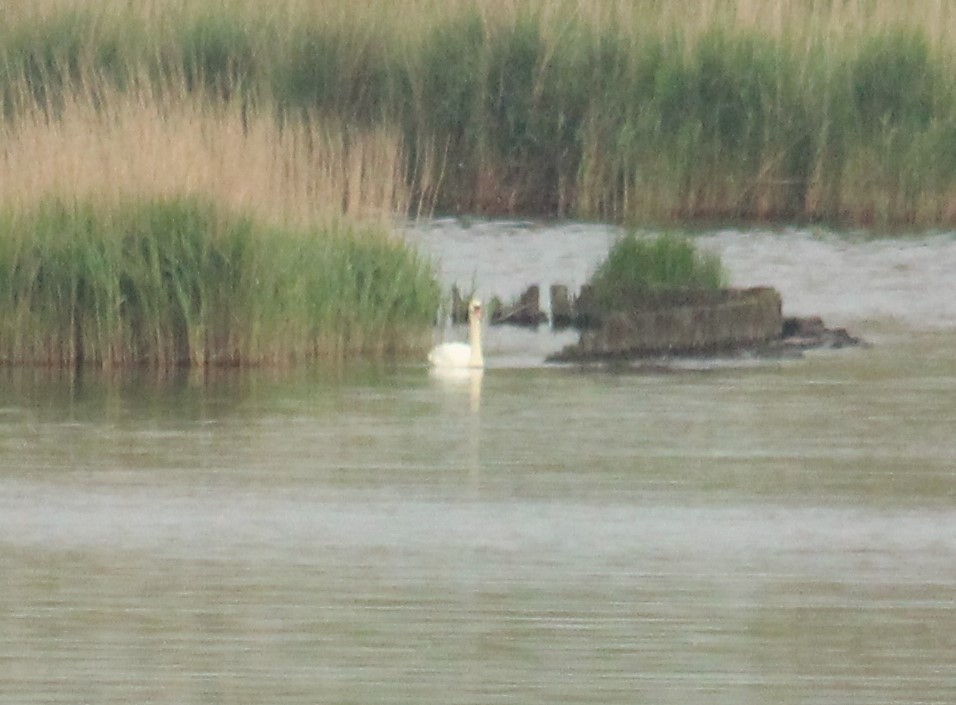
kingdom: Animalia
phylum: Chordata
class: Aves
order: Anseriformes
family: Anatidae
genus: Cygnus
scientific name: Cygnus olor
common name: Mute swan
